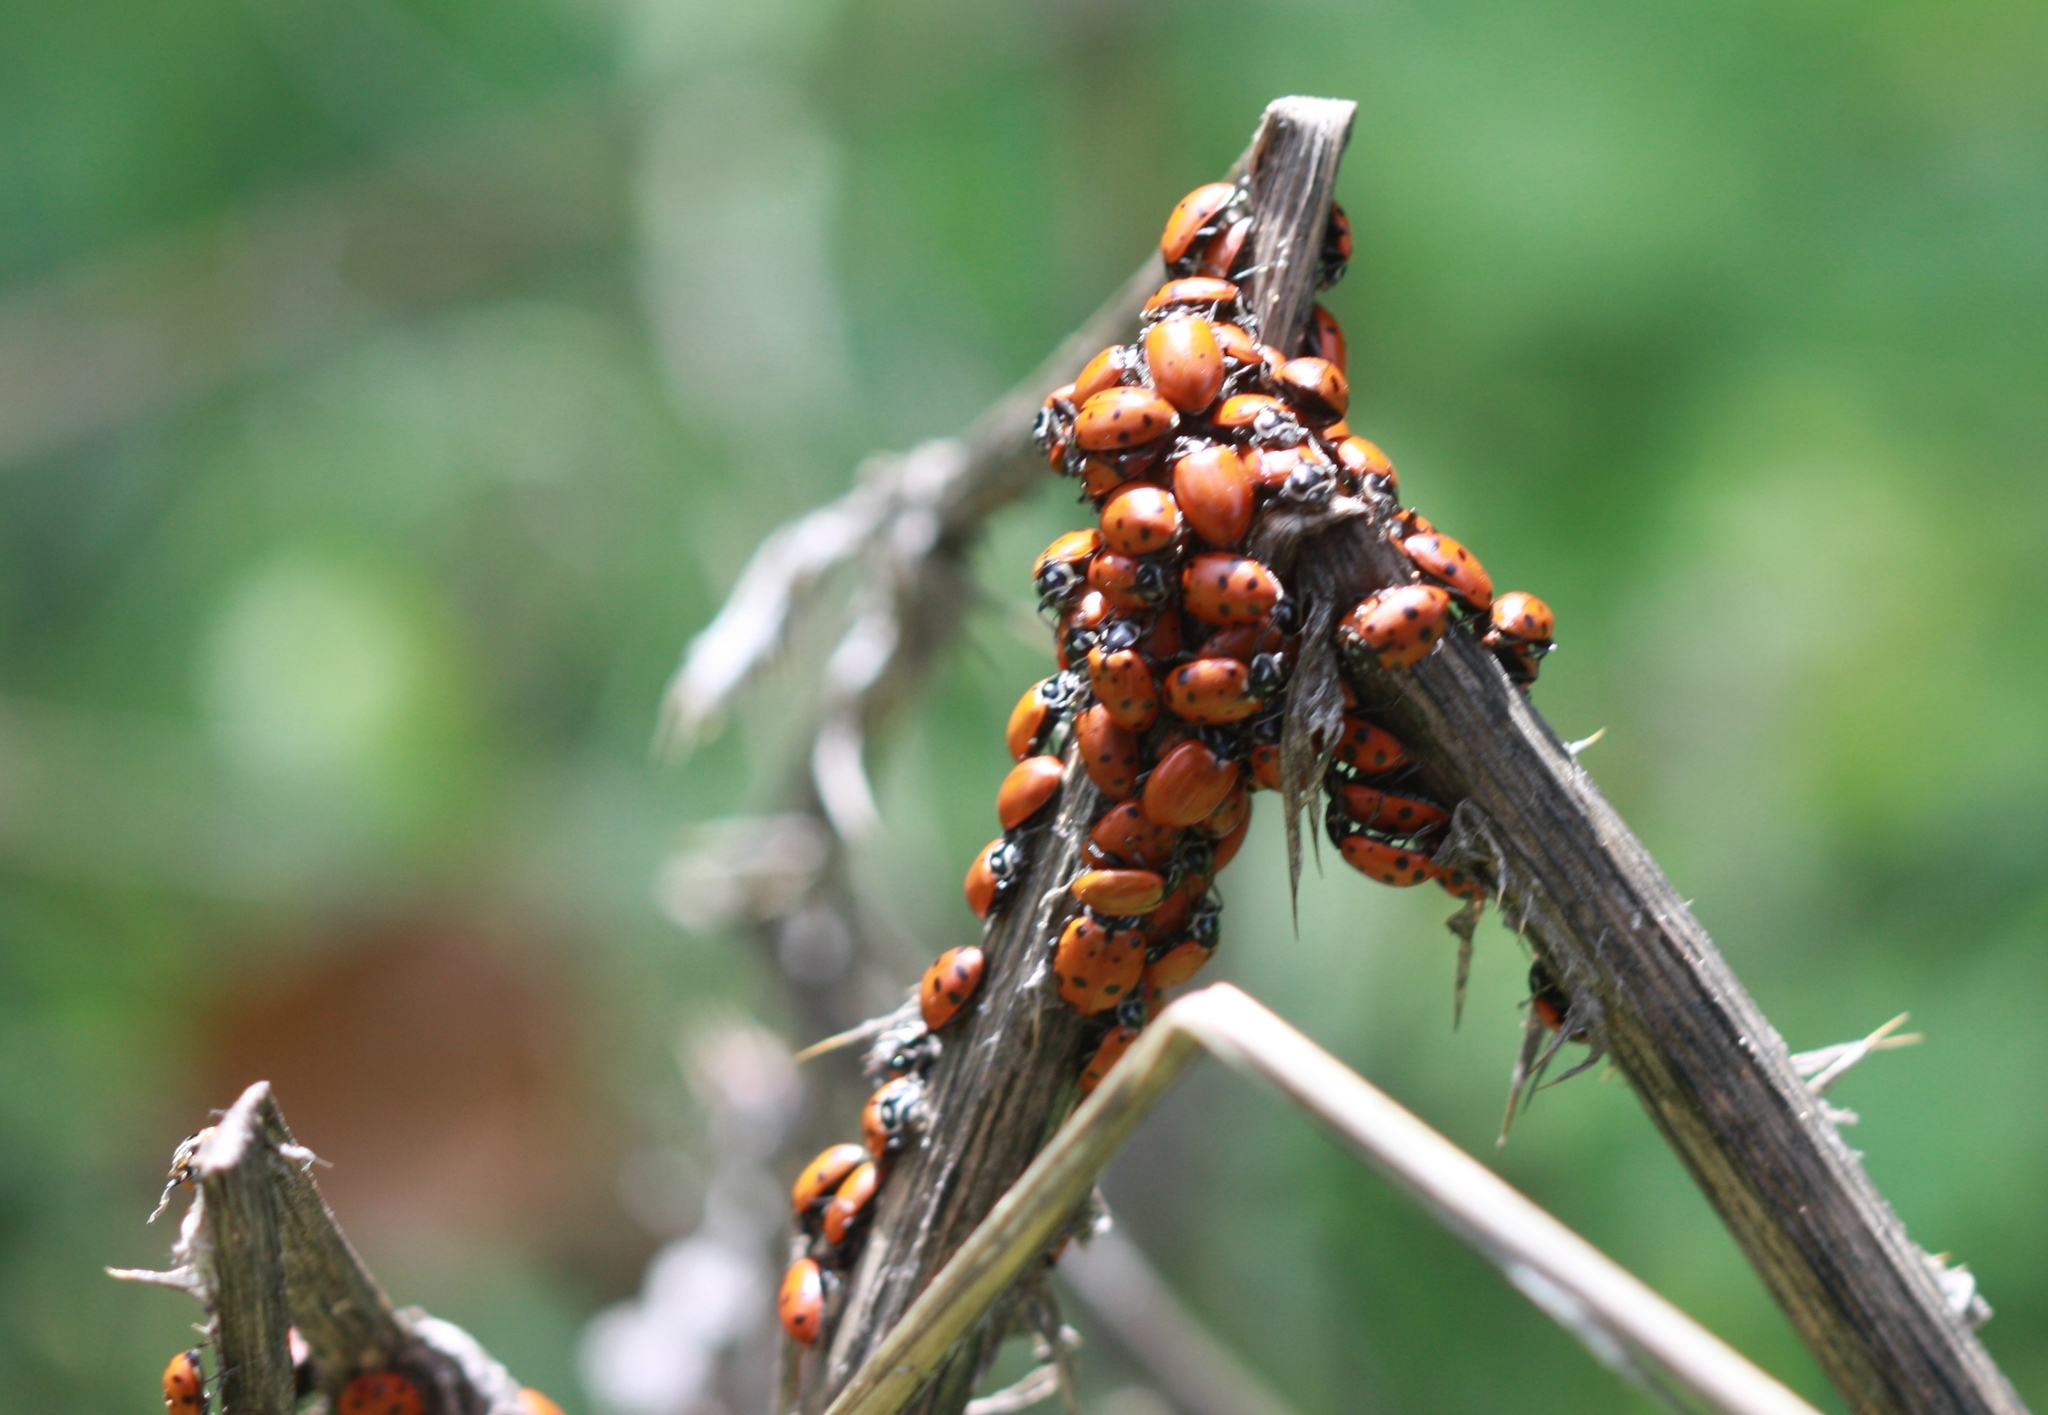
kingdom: Animalia
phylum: Arthropoda
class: Insecta
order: Coleoptera
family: Coccinellidae
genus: Hippodamia
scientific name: Hippodamia convergens
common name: Convergent lady beetle
